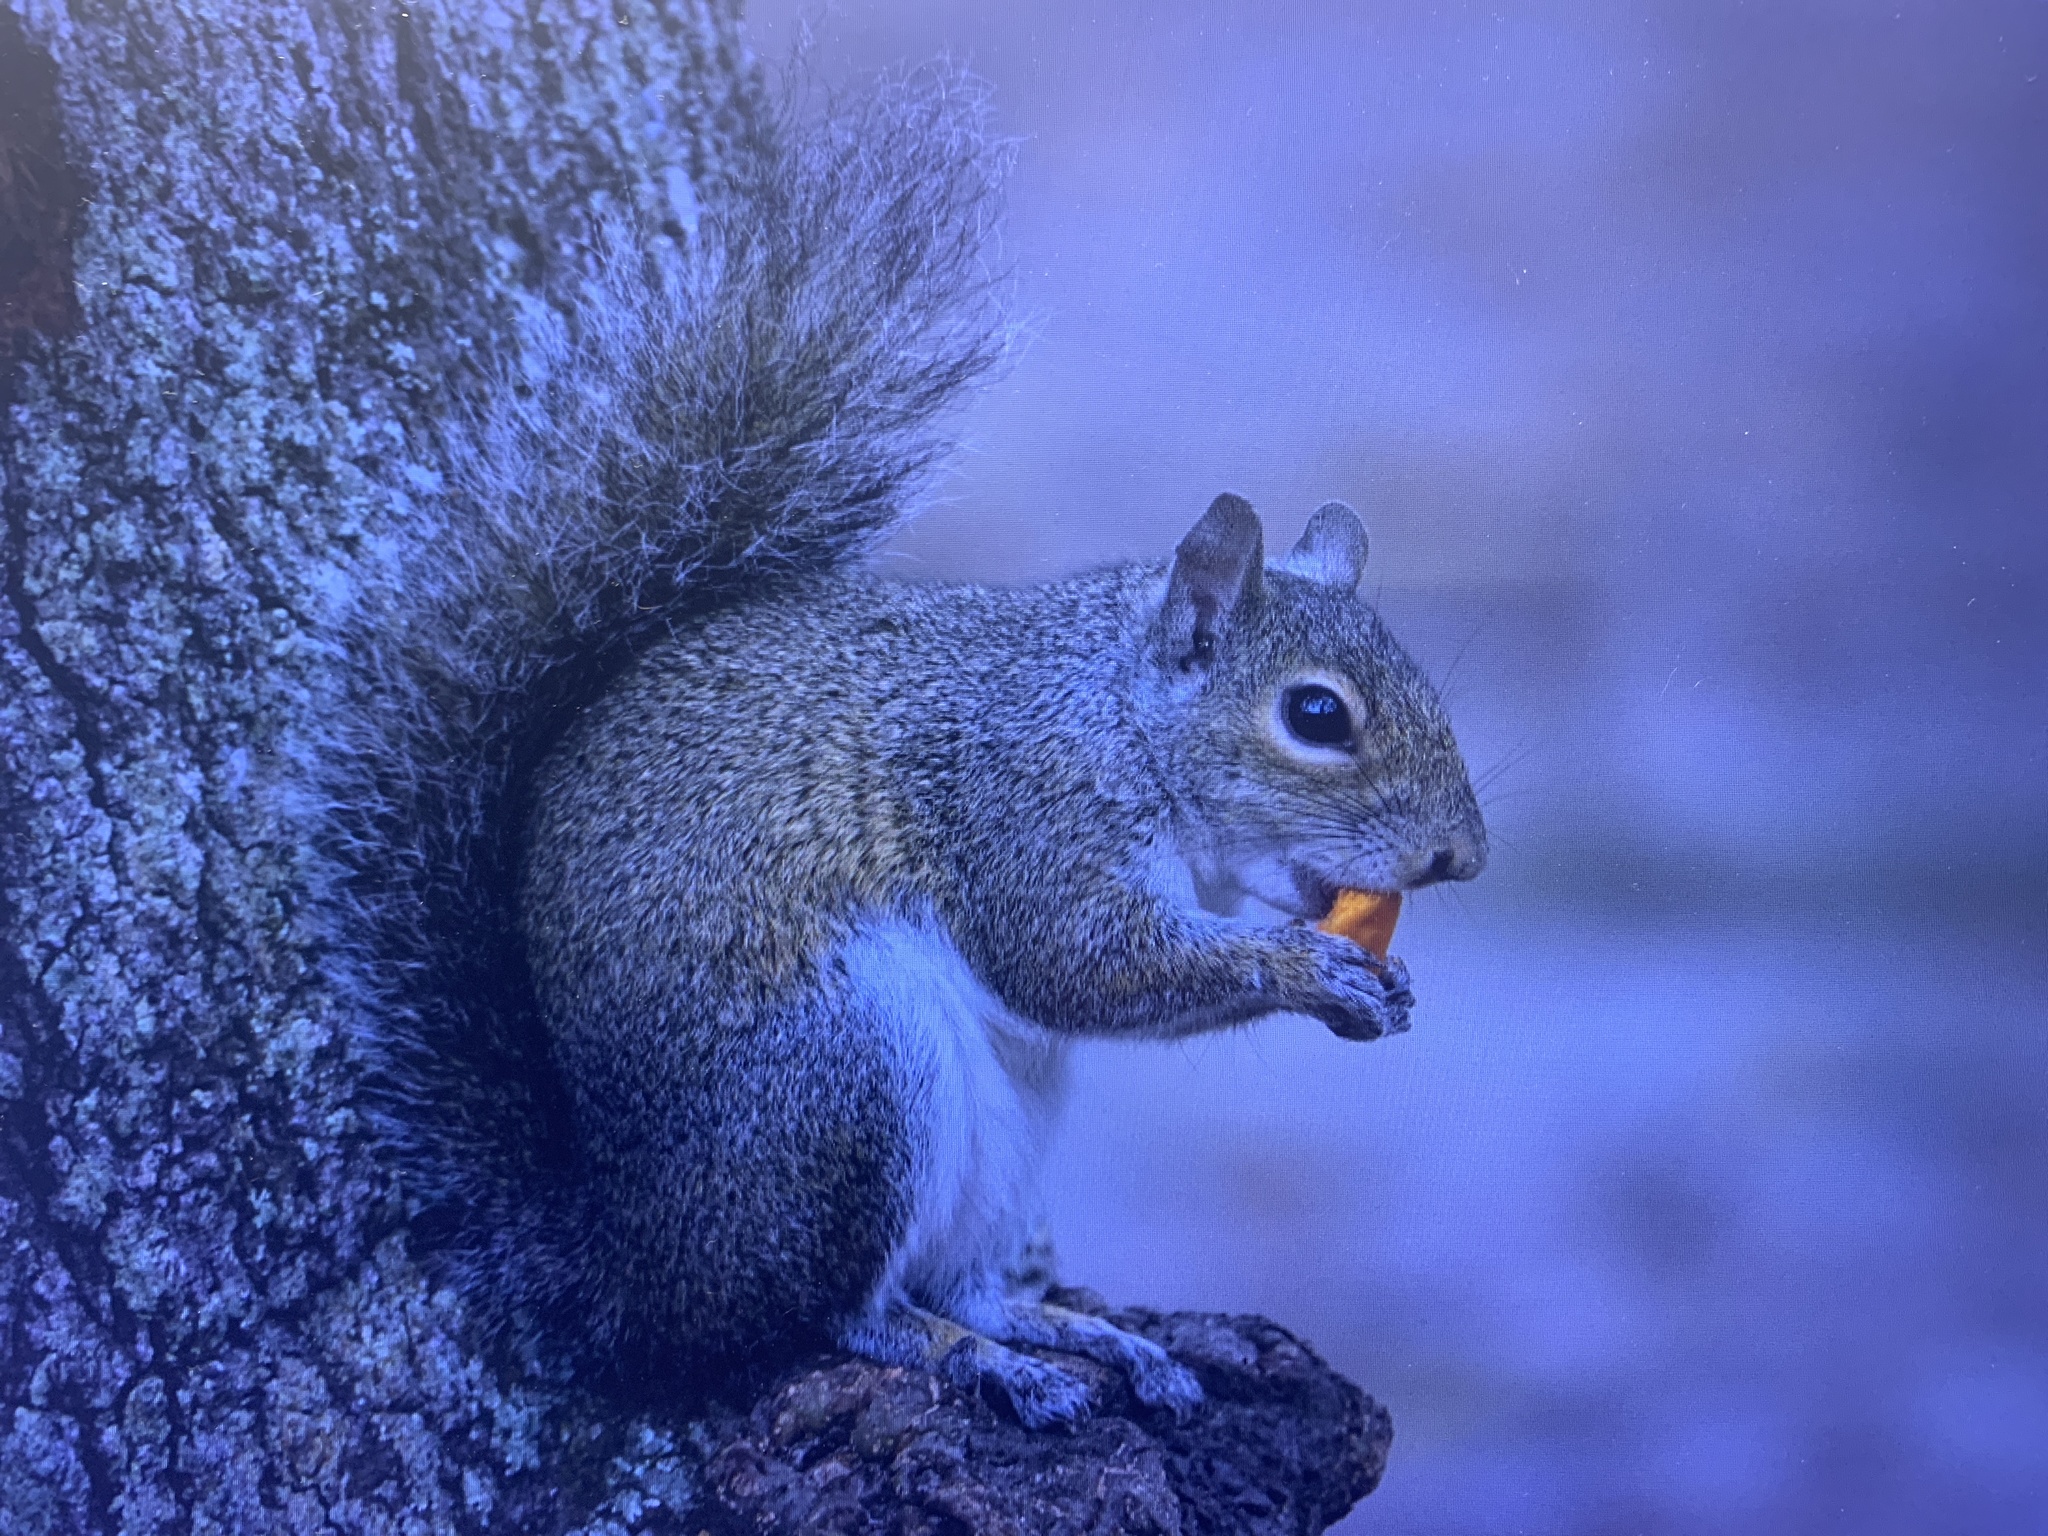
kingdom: Animalia
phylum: Chordata
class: Mammalia
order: Rodentia
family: Sciuridae
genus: Sciurus
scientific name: Sciurus carolinensis
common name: Eastern gray squirrel
